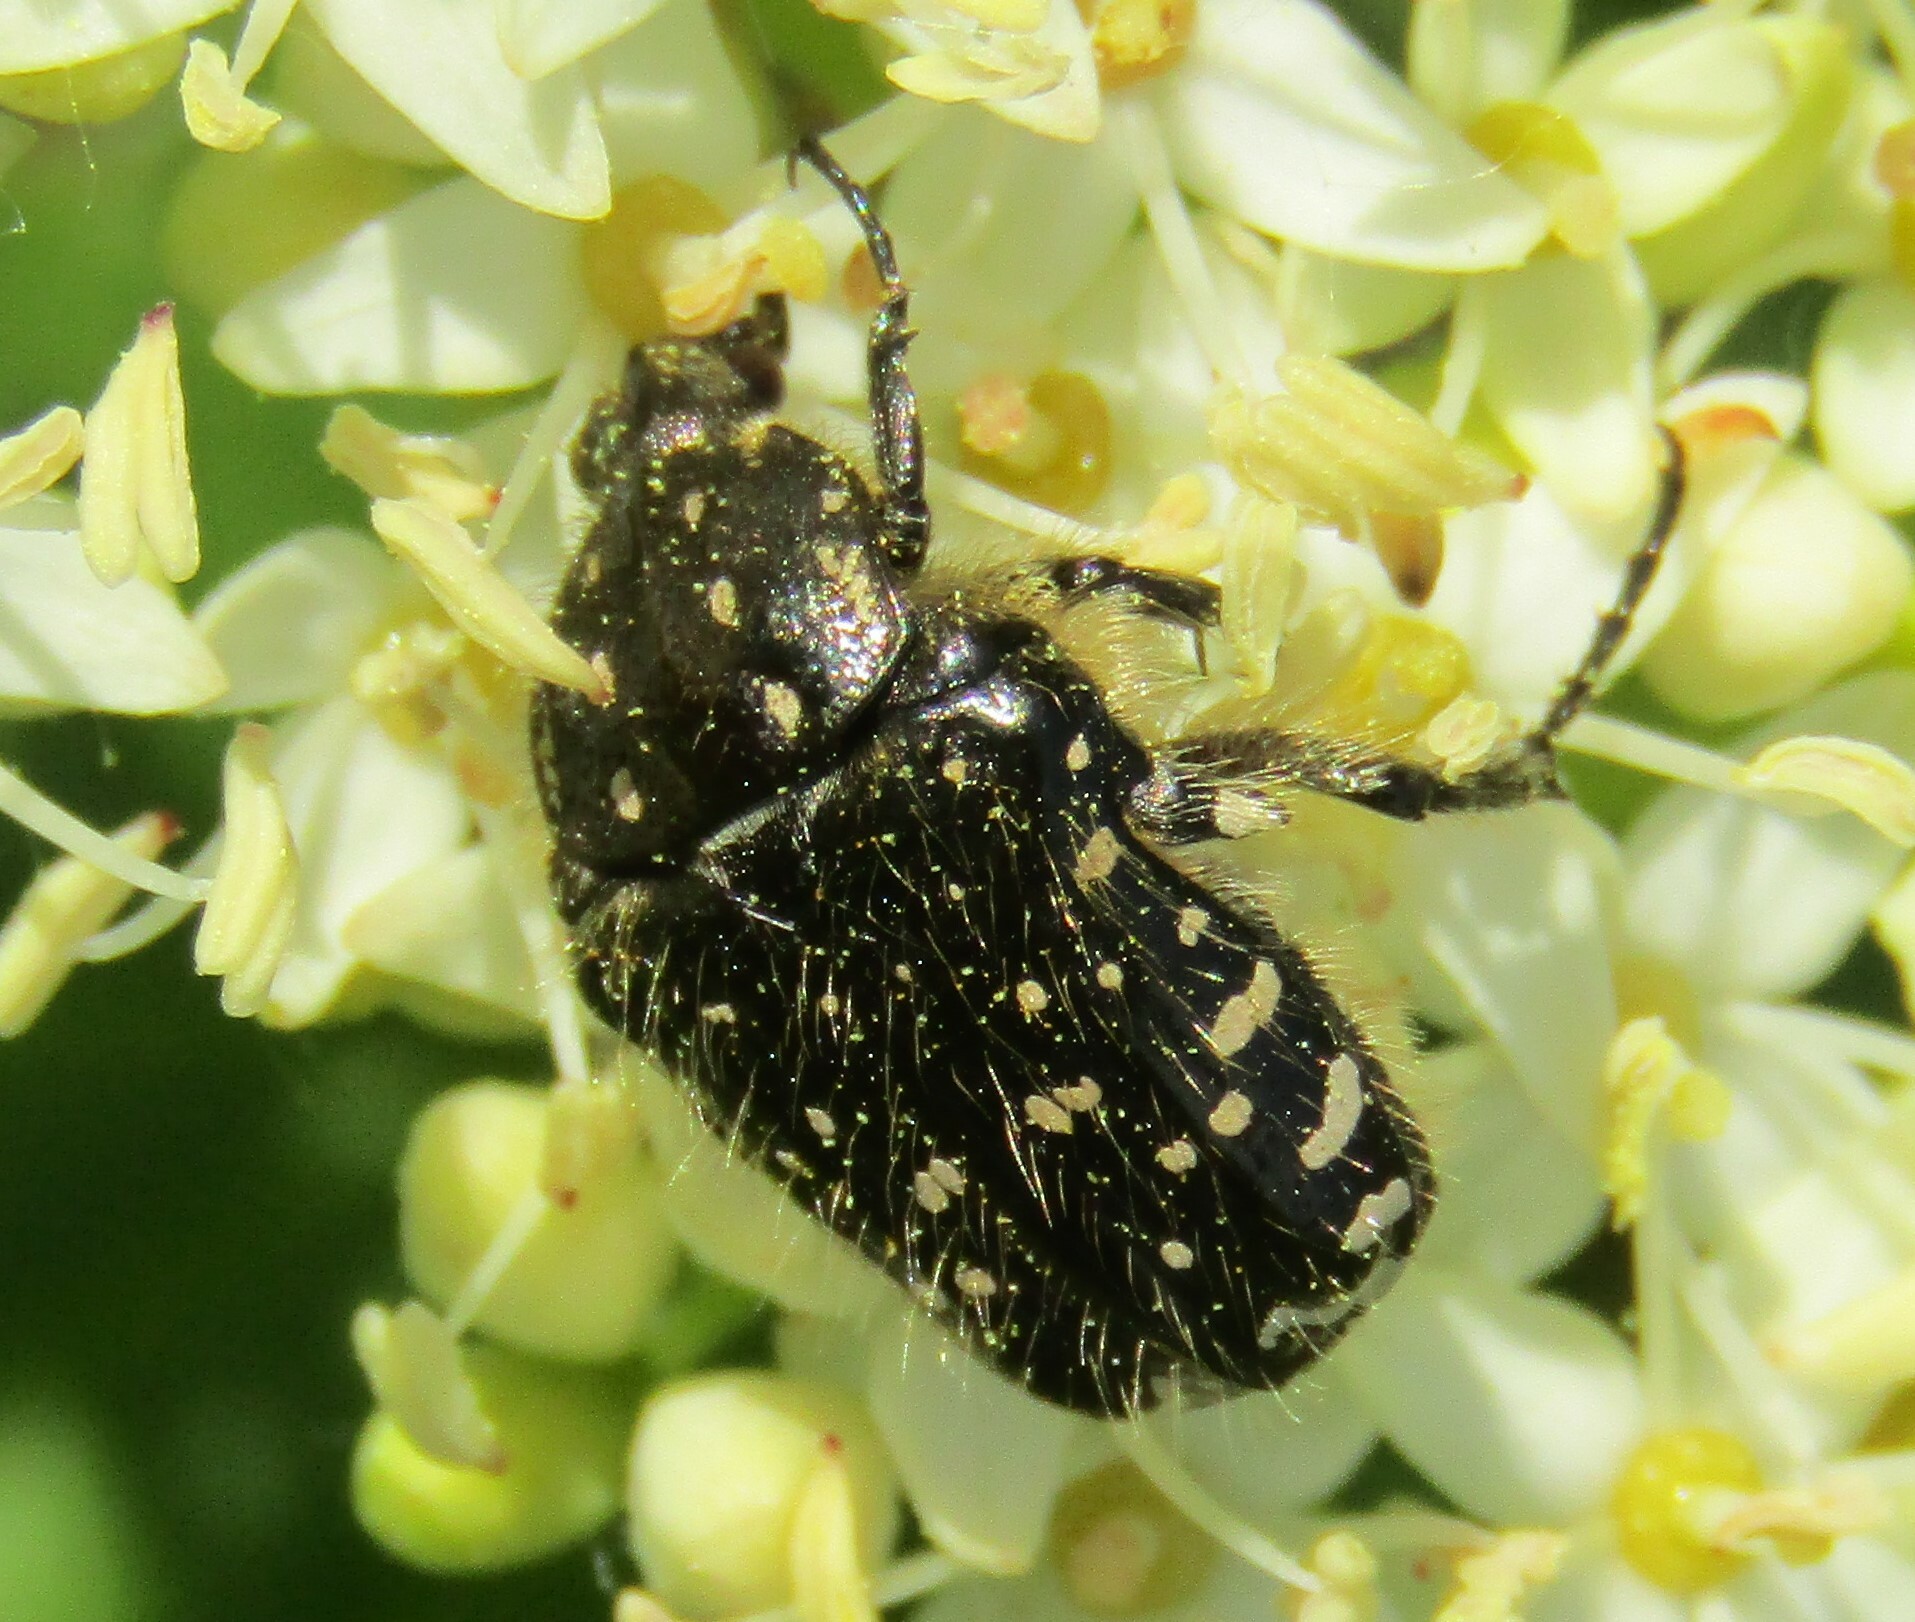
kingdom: Animalia
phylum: Arthropoda
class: Insecta
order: Coleoptera
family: Scarabaeidae
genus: Oxythyrea
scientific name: Oxythyrea funesta
